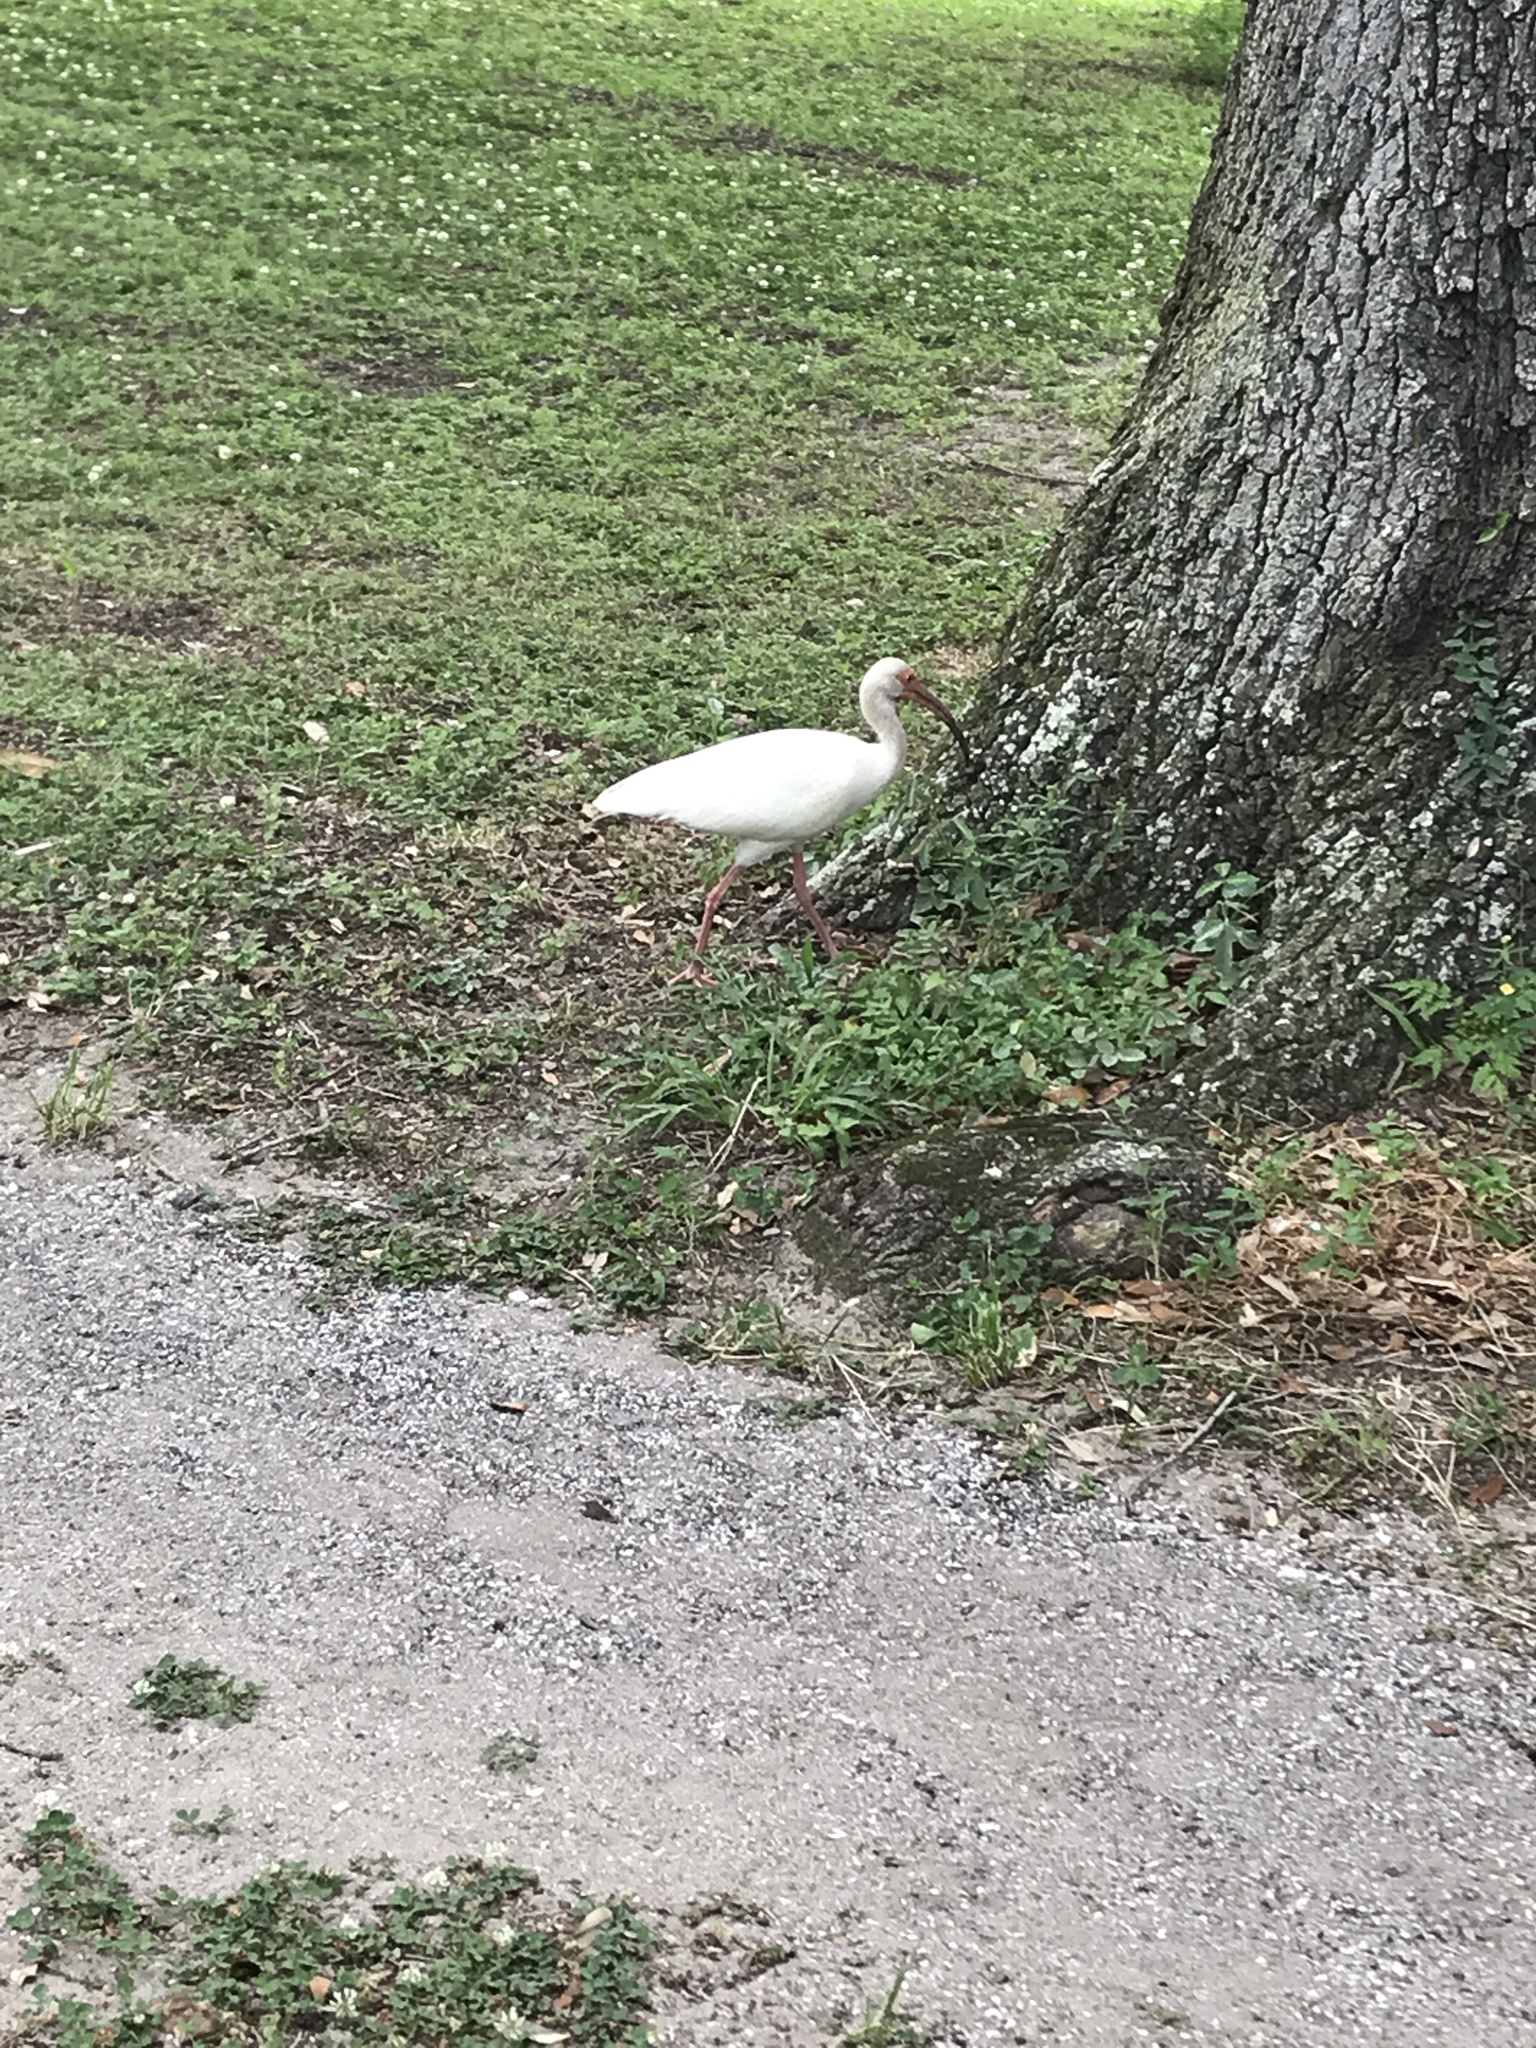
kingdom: Animalia
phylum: Chordata
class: Aves
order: Pelecaniformes
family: Threskiornithidae
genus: Eudocimus
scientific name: Eudocimus albus
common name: White ibis
